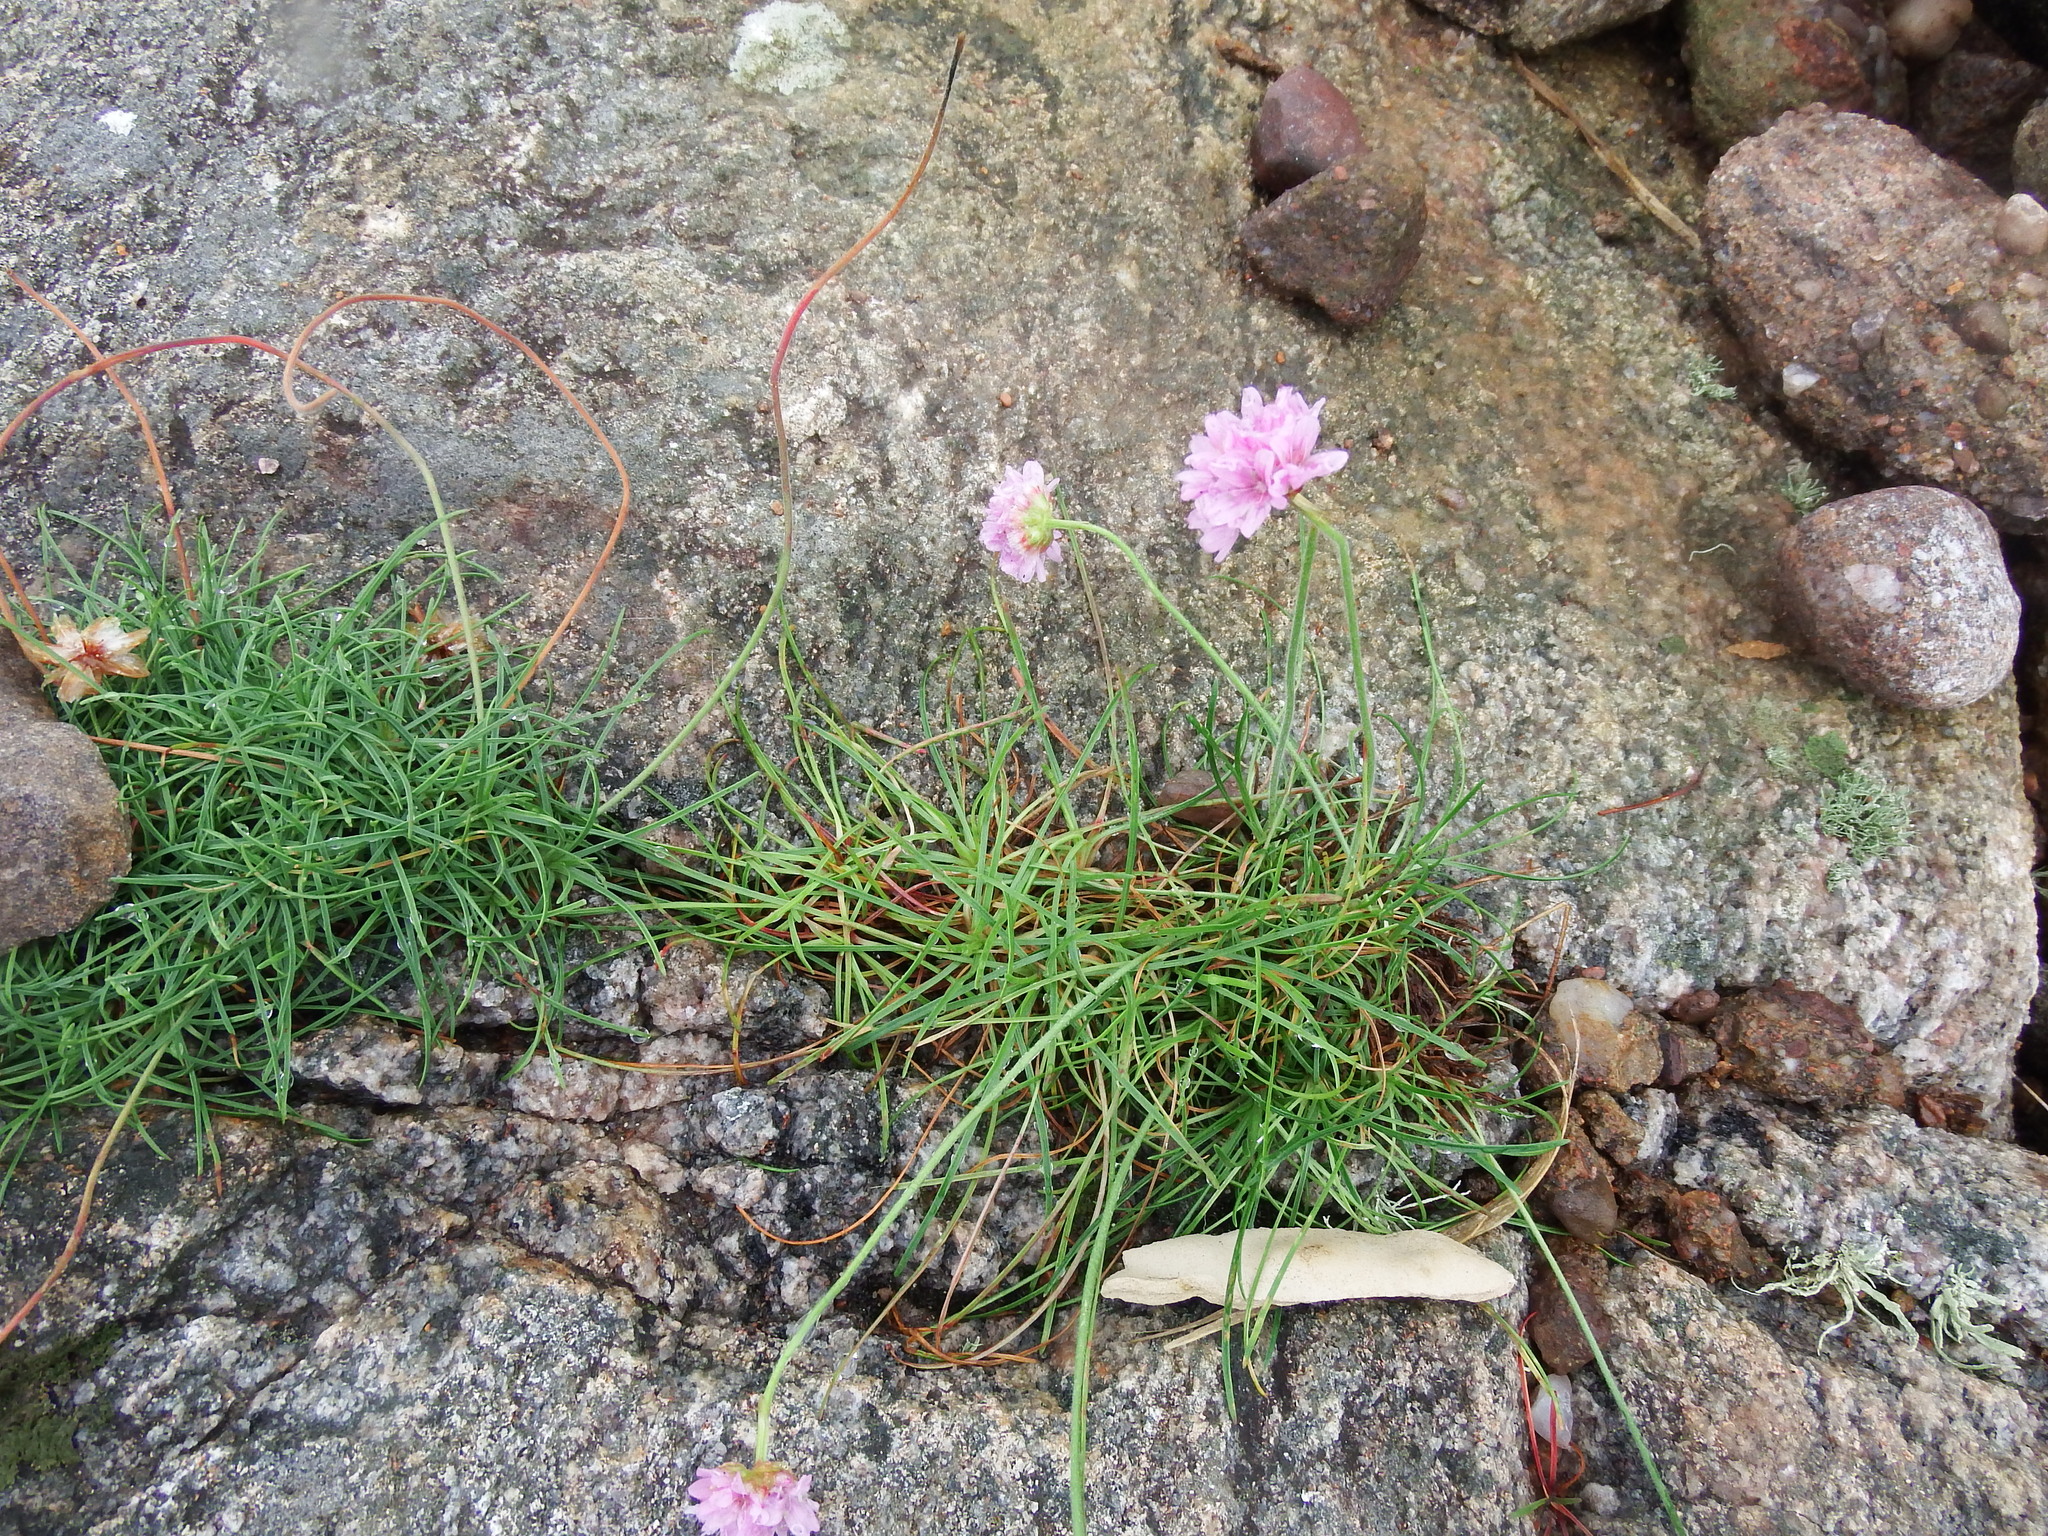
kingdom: Plantae
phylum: Tracheophyta
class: Magnoliopsida
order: Caryophyllales
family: Plumbaginaceae
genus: Armeria
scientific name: Armeria maritima
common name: Thrift
